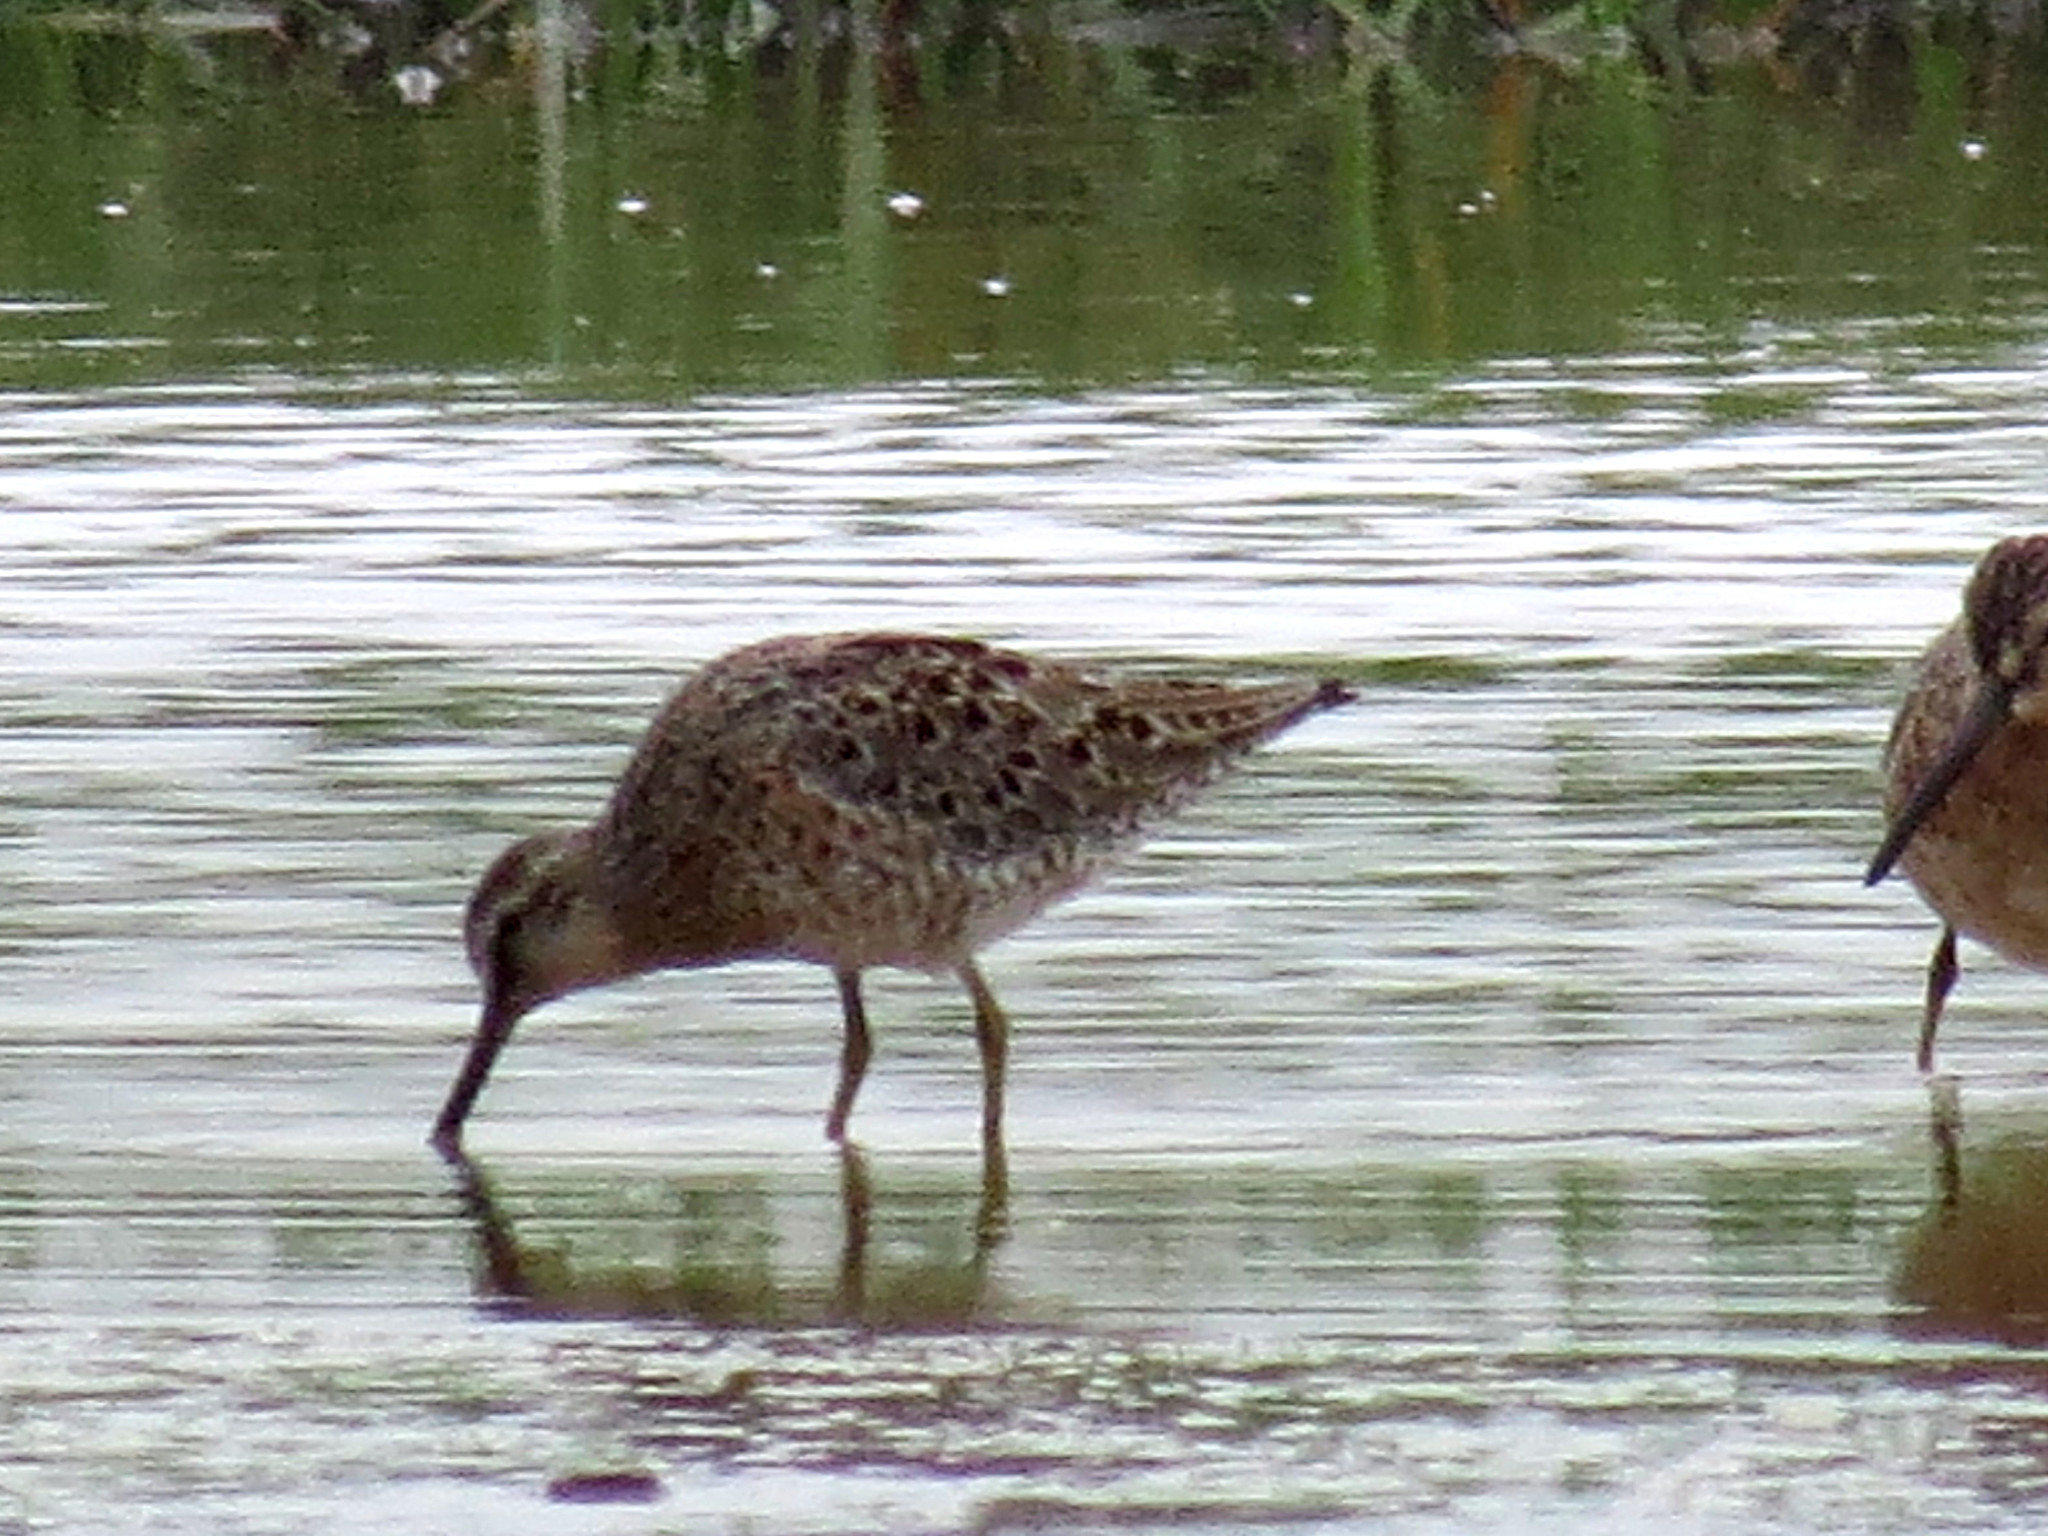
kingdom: Animalia
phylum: Chordata
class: Aves
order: Charadriiformes
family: Scolopacidae
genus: Limnodromus
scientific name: Limnodromus griseus
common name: Short-billed dowitcher
